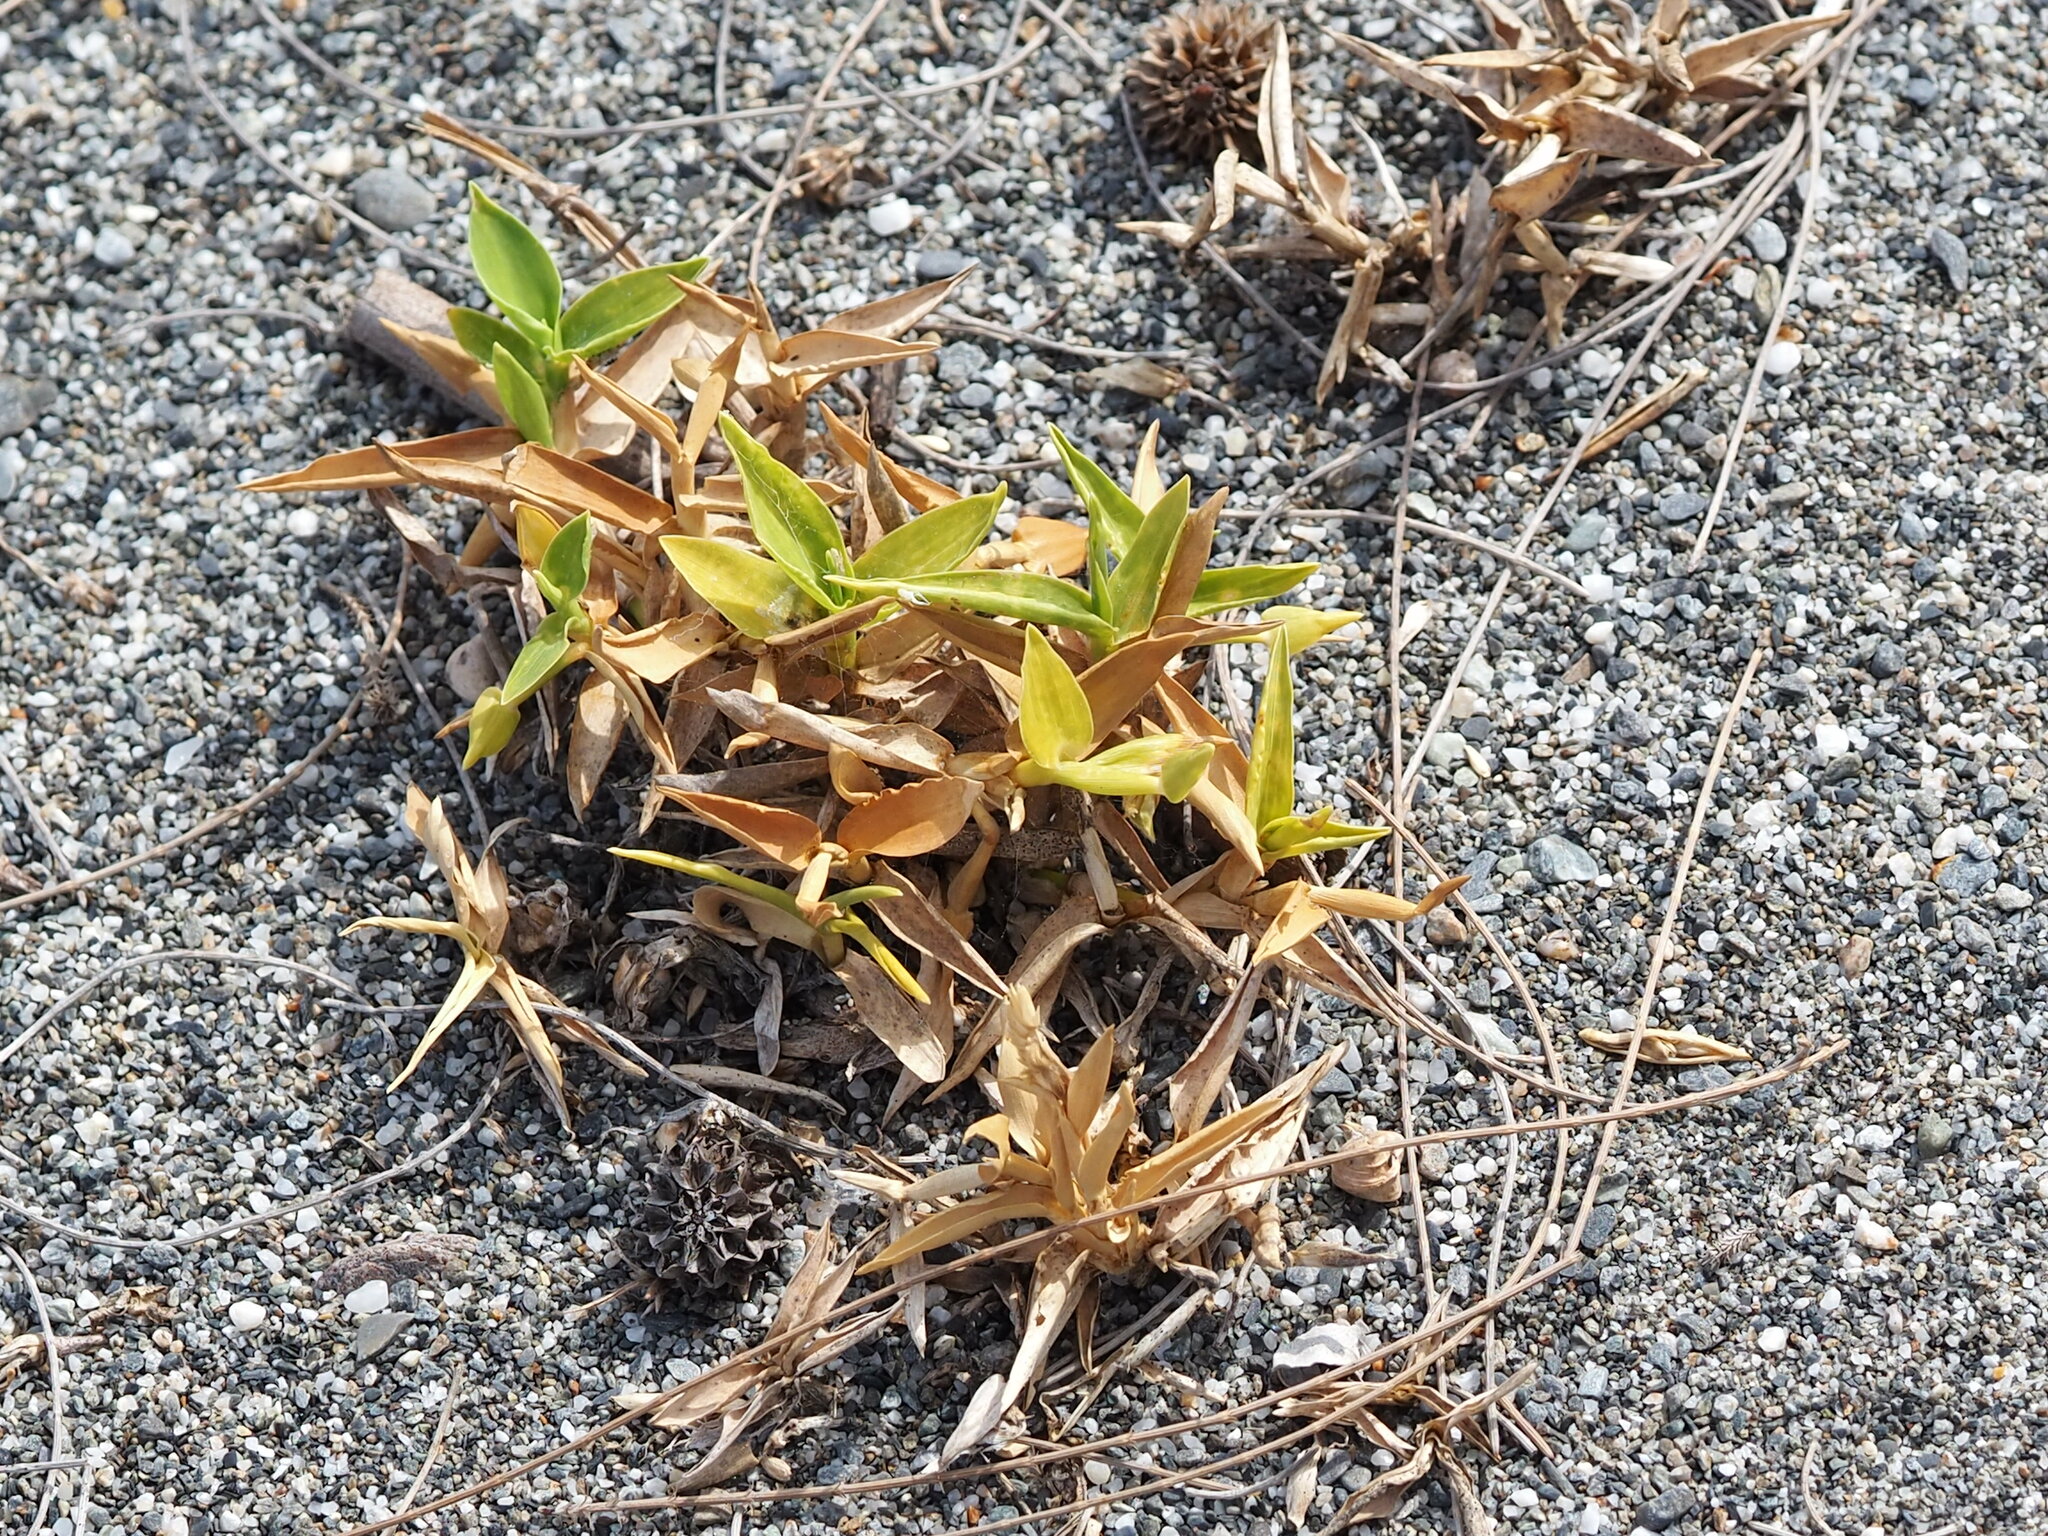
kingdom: Plantae
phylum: Tracheophyta
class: Liliopsida
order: Poales
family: Poaceae
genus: Thuarea
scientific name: Thuarea involuta
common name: Tropical beach grass
